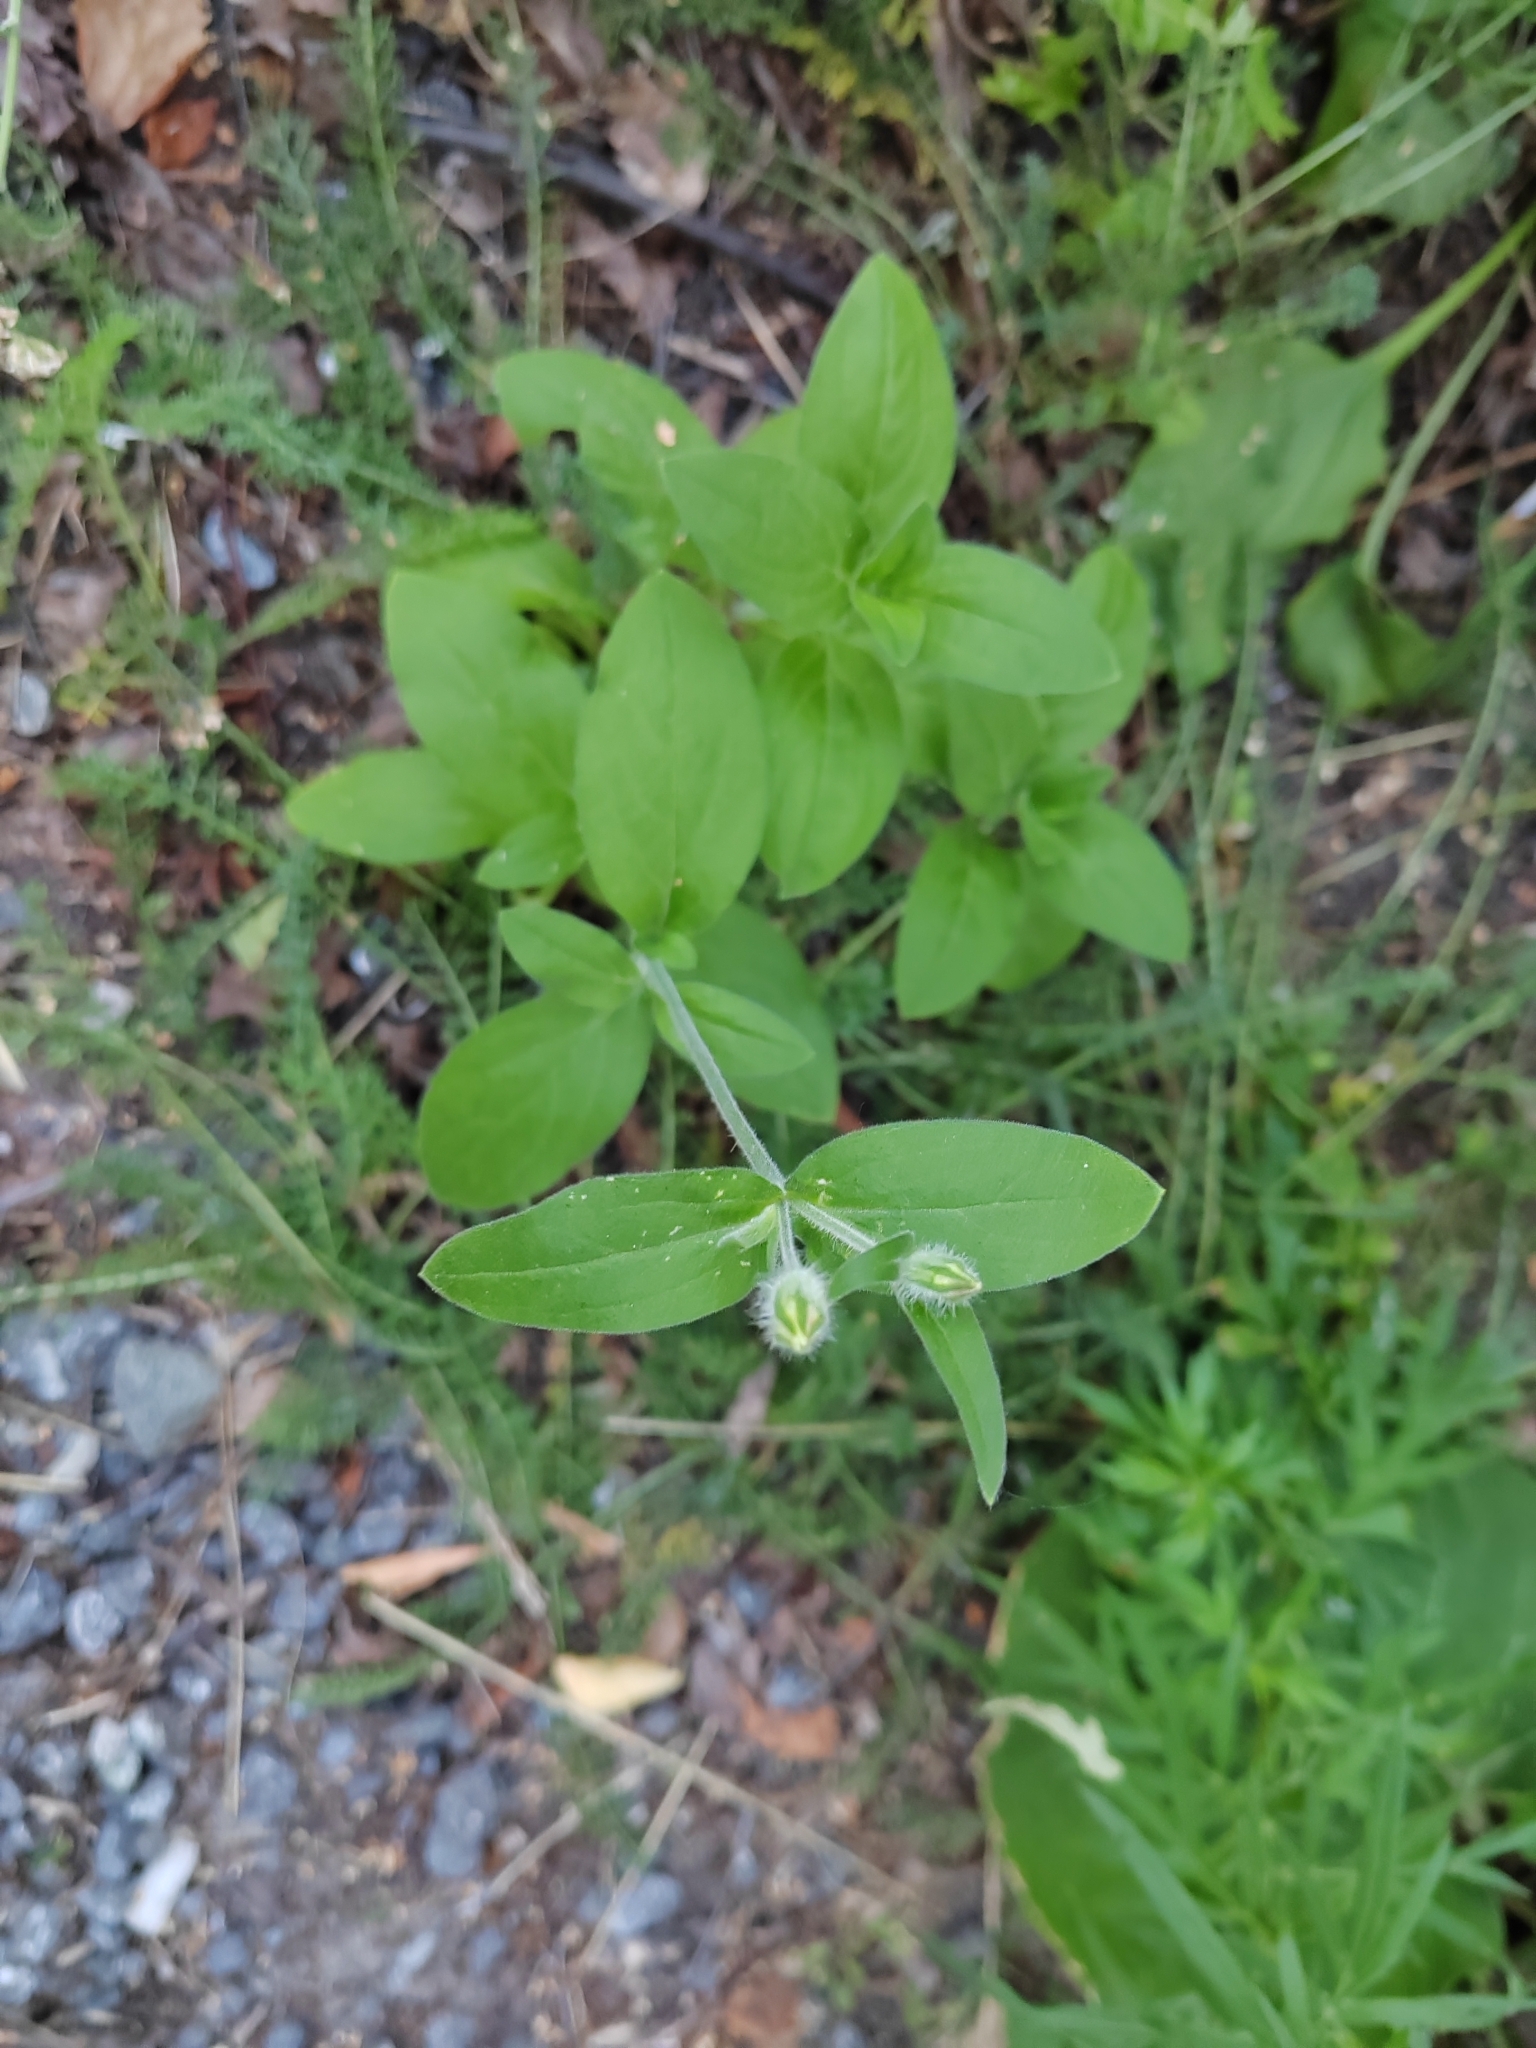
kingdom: Plantae
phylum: Tracheophyta
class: Magnoliopsida
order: Caryophyllales
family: Caryophyllaceae
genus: Silene
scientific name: Silene latifolia
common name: White campion
